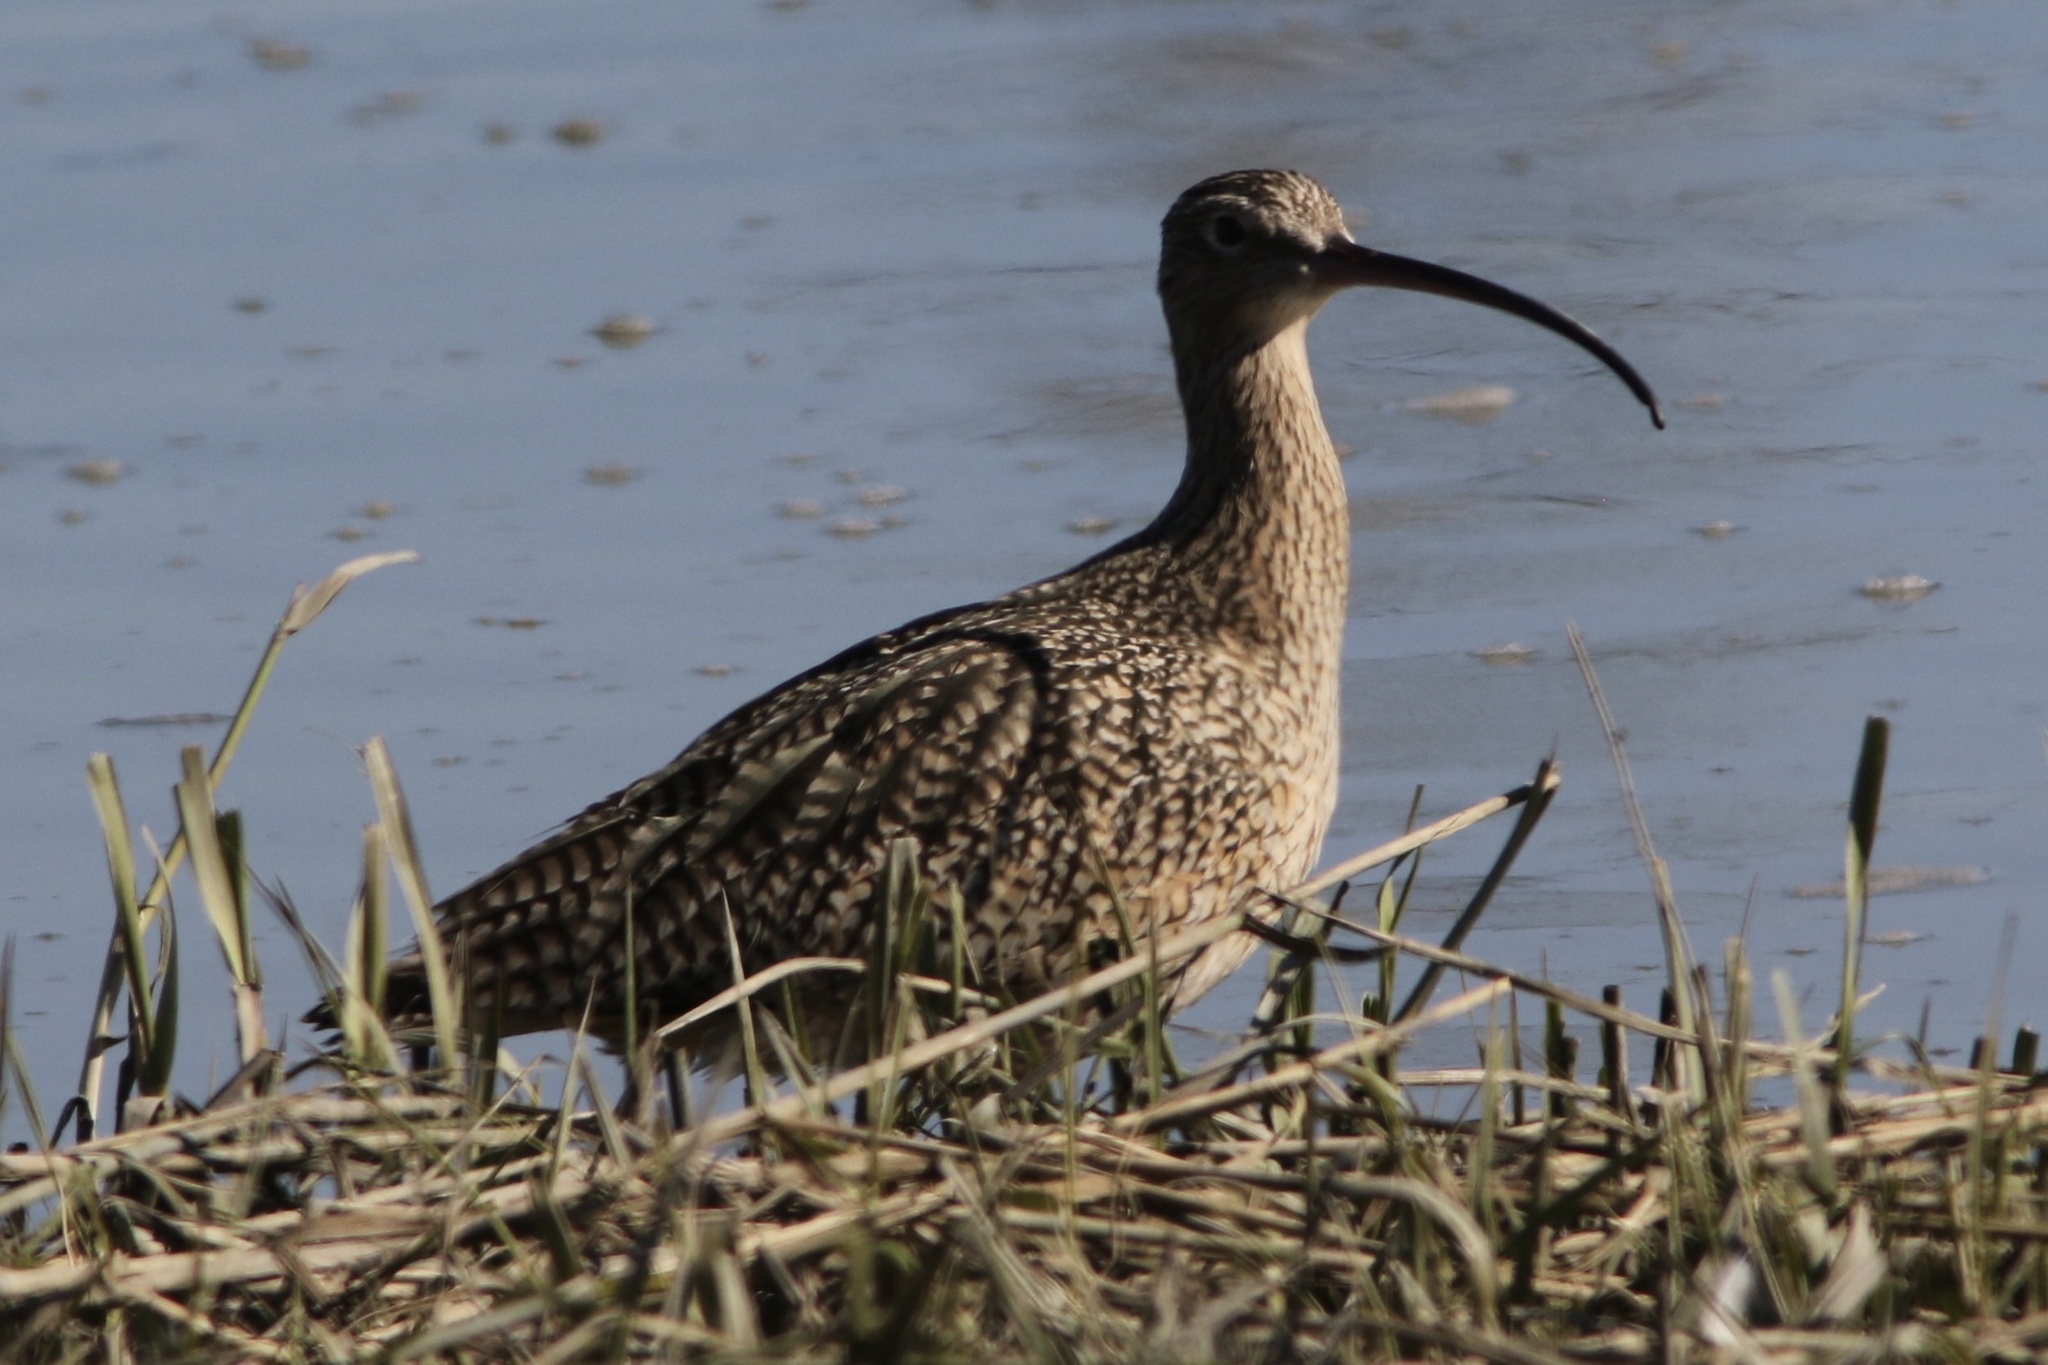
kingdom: Animalia
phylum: Chordata
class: Aves
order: Charadriiformes
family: Scolopacidae
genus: Numenius
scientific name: Numenius americanus
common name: Long-billed curlew
